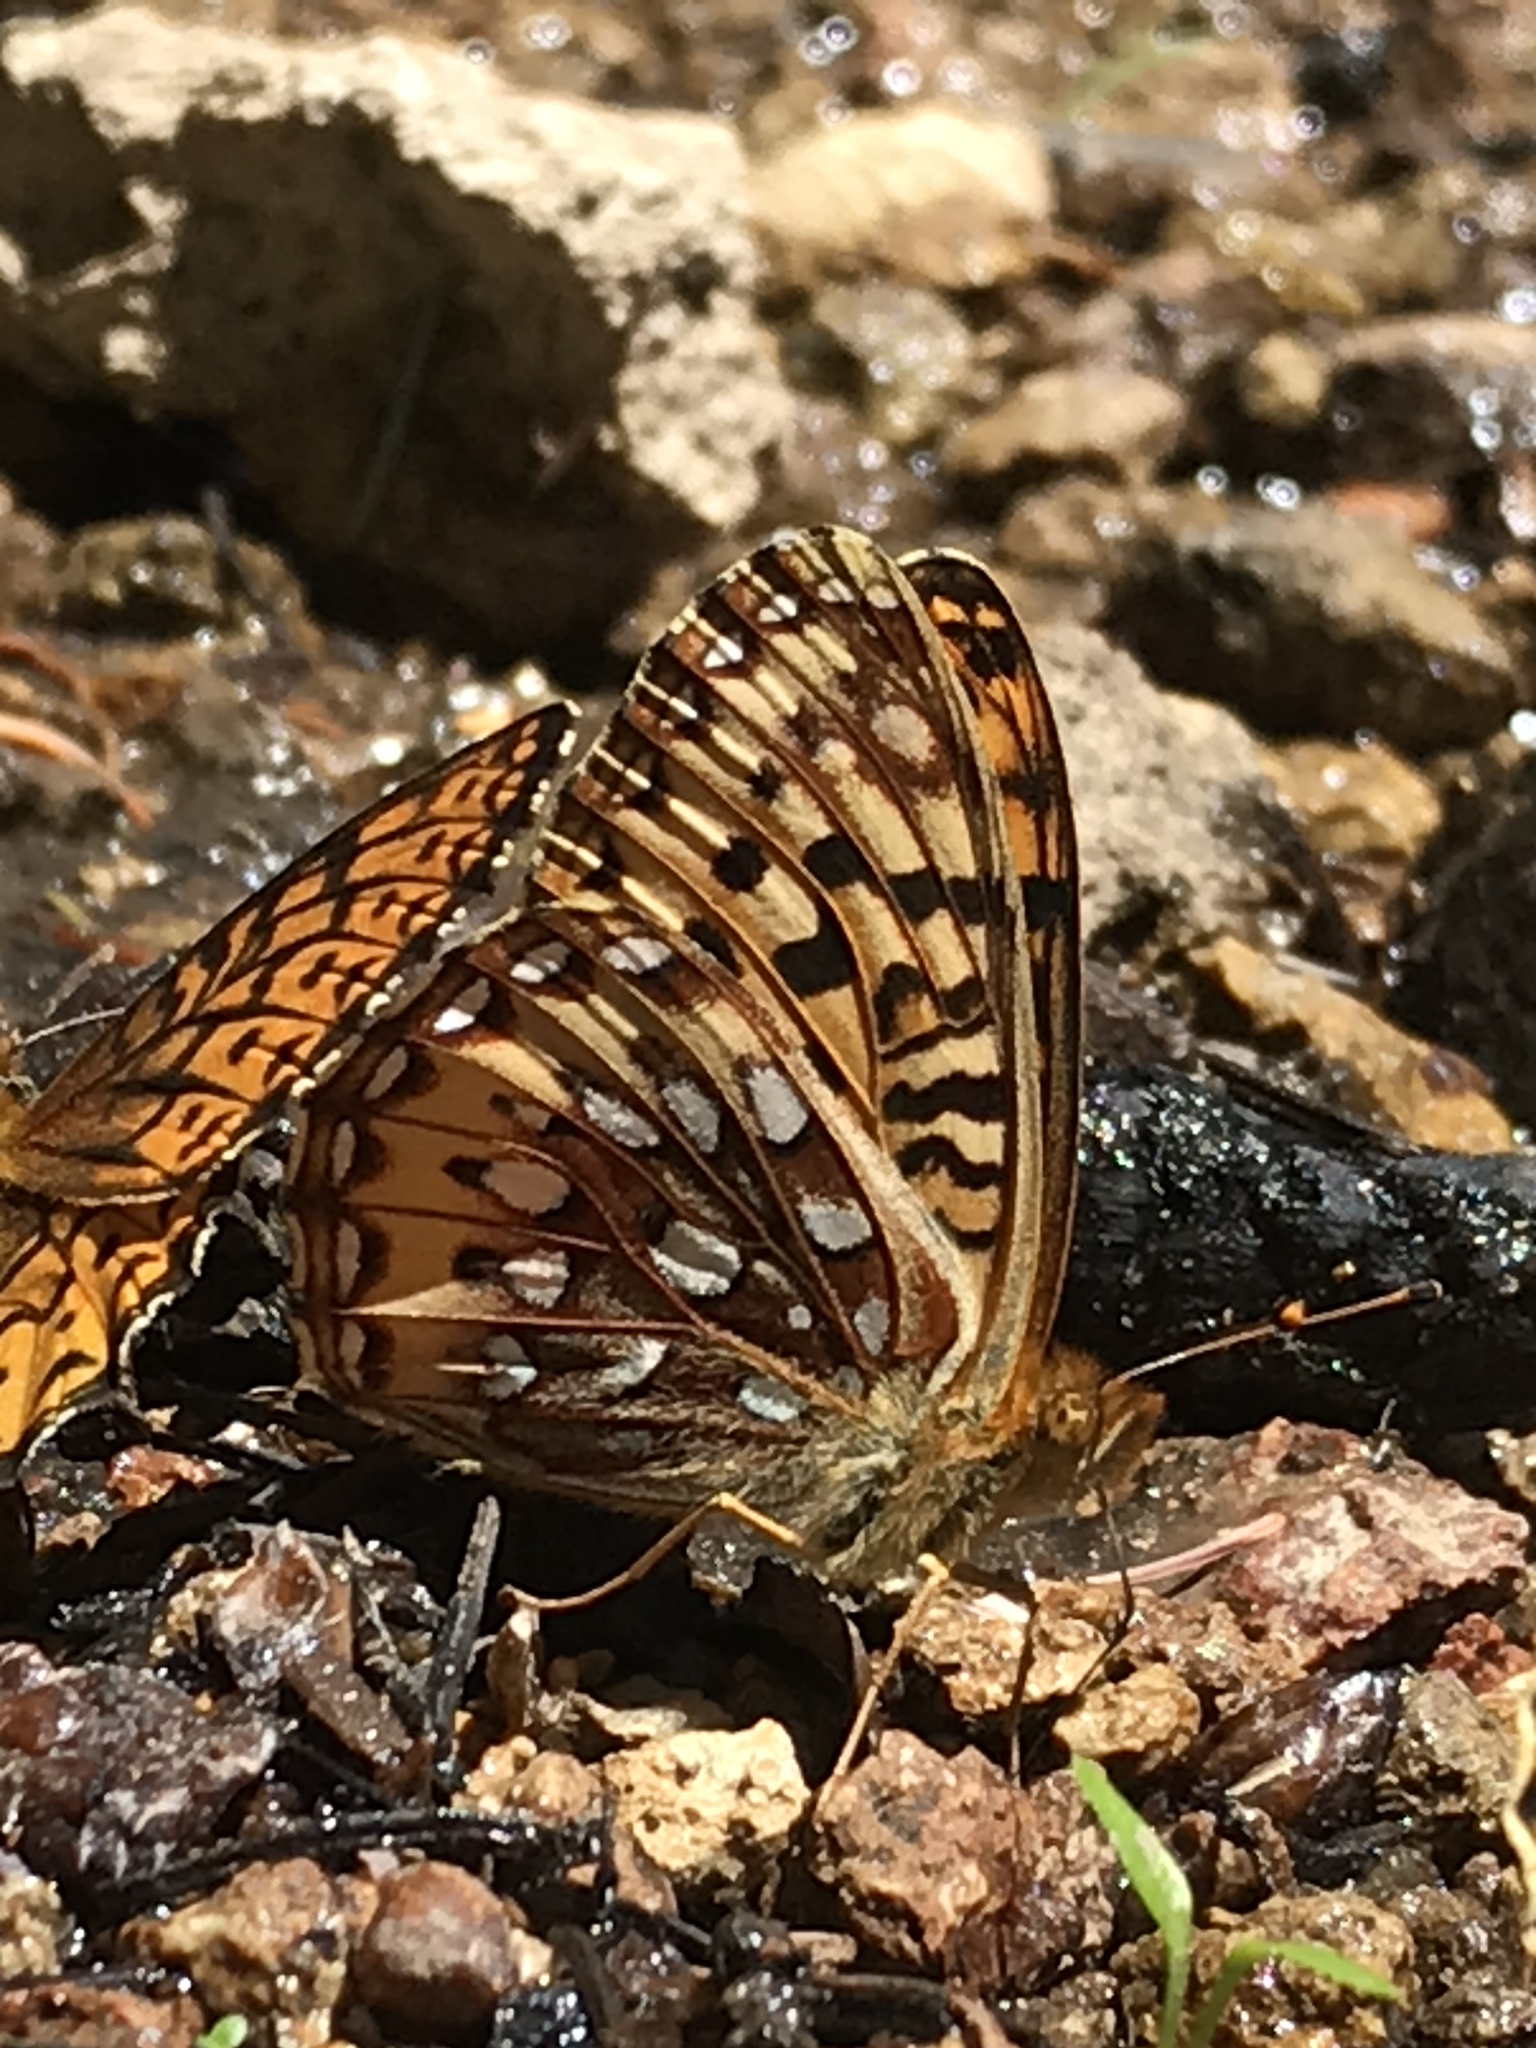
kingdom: Animalia
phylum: Arthropoda
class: Insecta
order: Lepidoptera
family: Nymphalidae
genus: Speyeria
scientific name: Speyeria atlantis
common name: Atlantis fritillary
